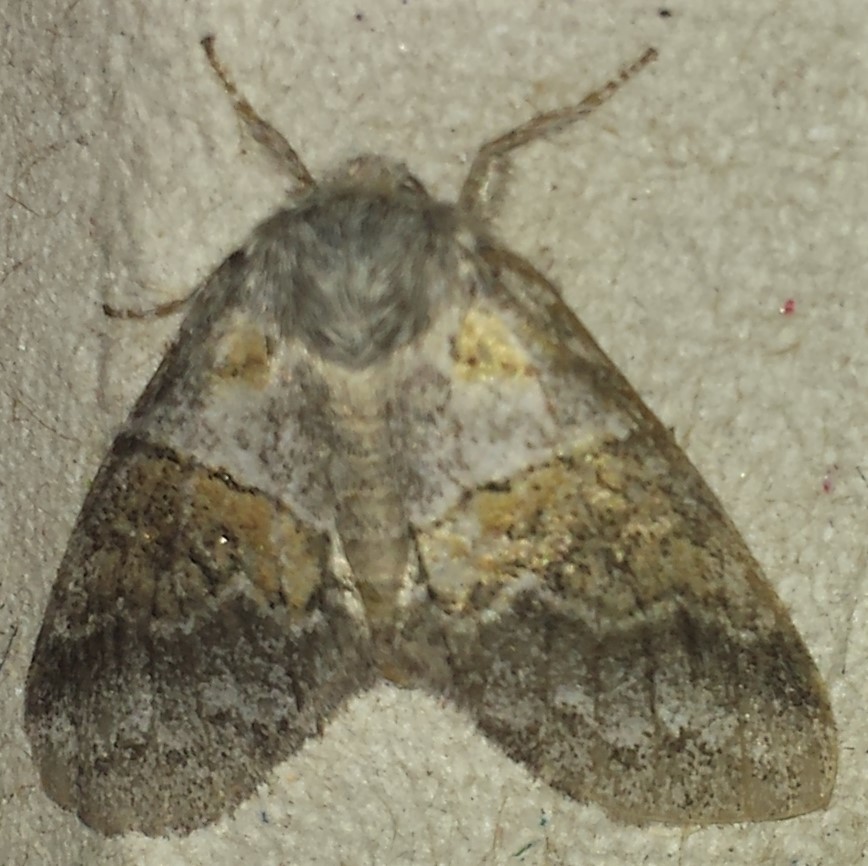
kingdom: Animalia
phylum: Arthropoda
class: Insecta
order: Lepidoptera
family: Notodontidae
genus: Gluphisia
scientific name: Gluphisia septentrionis
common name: Common gluphisia
